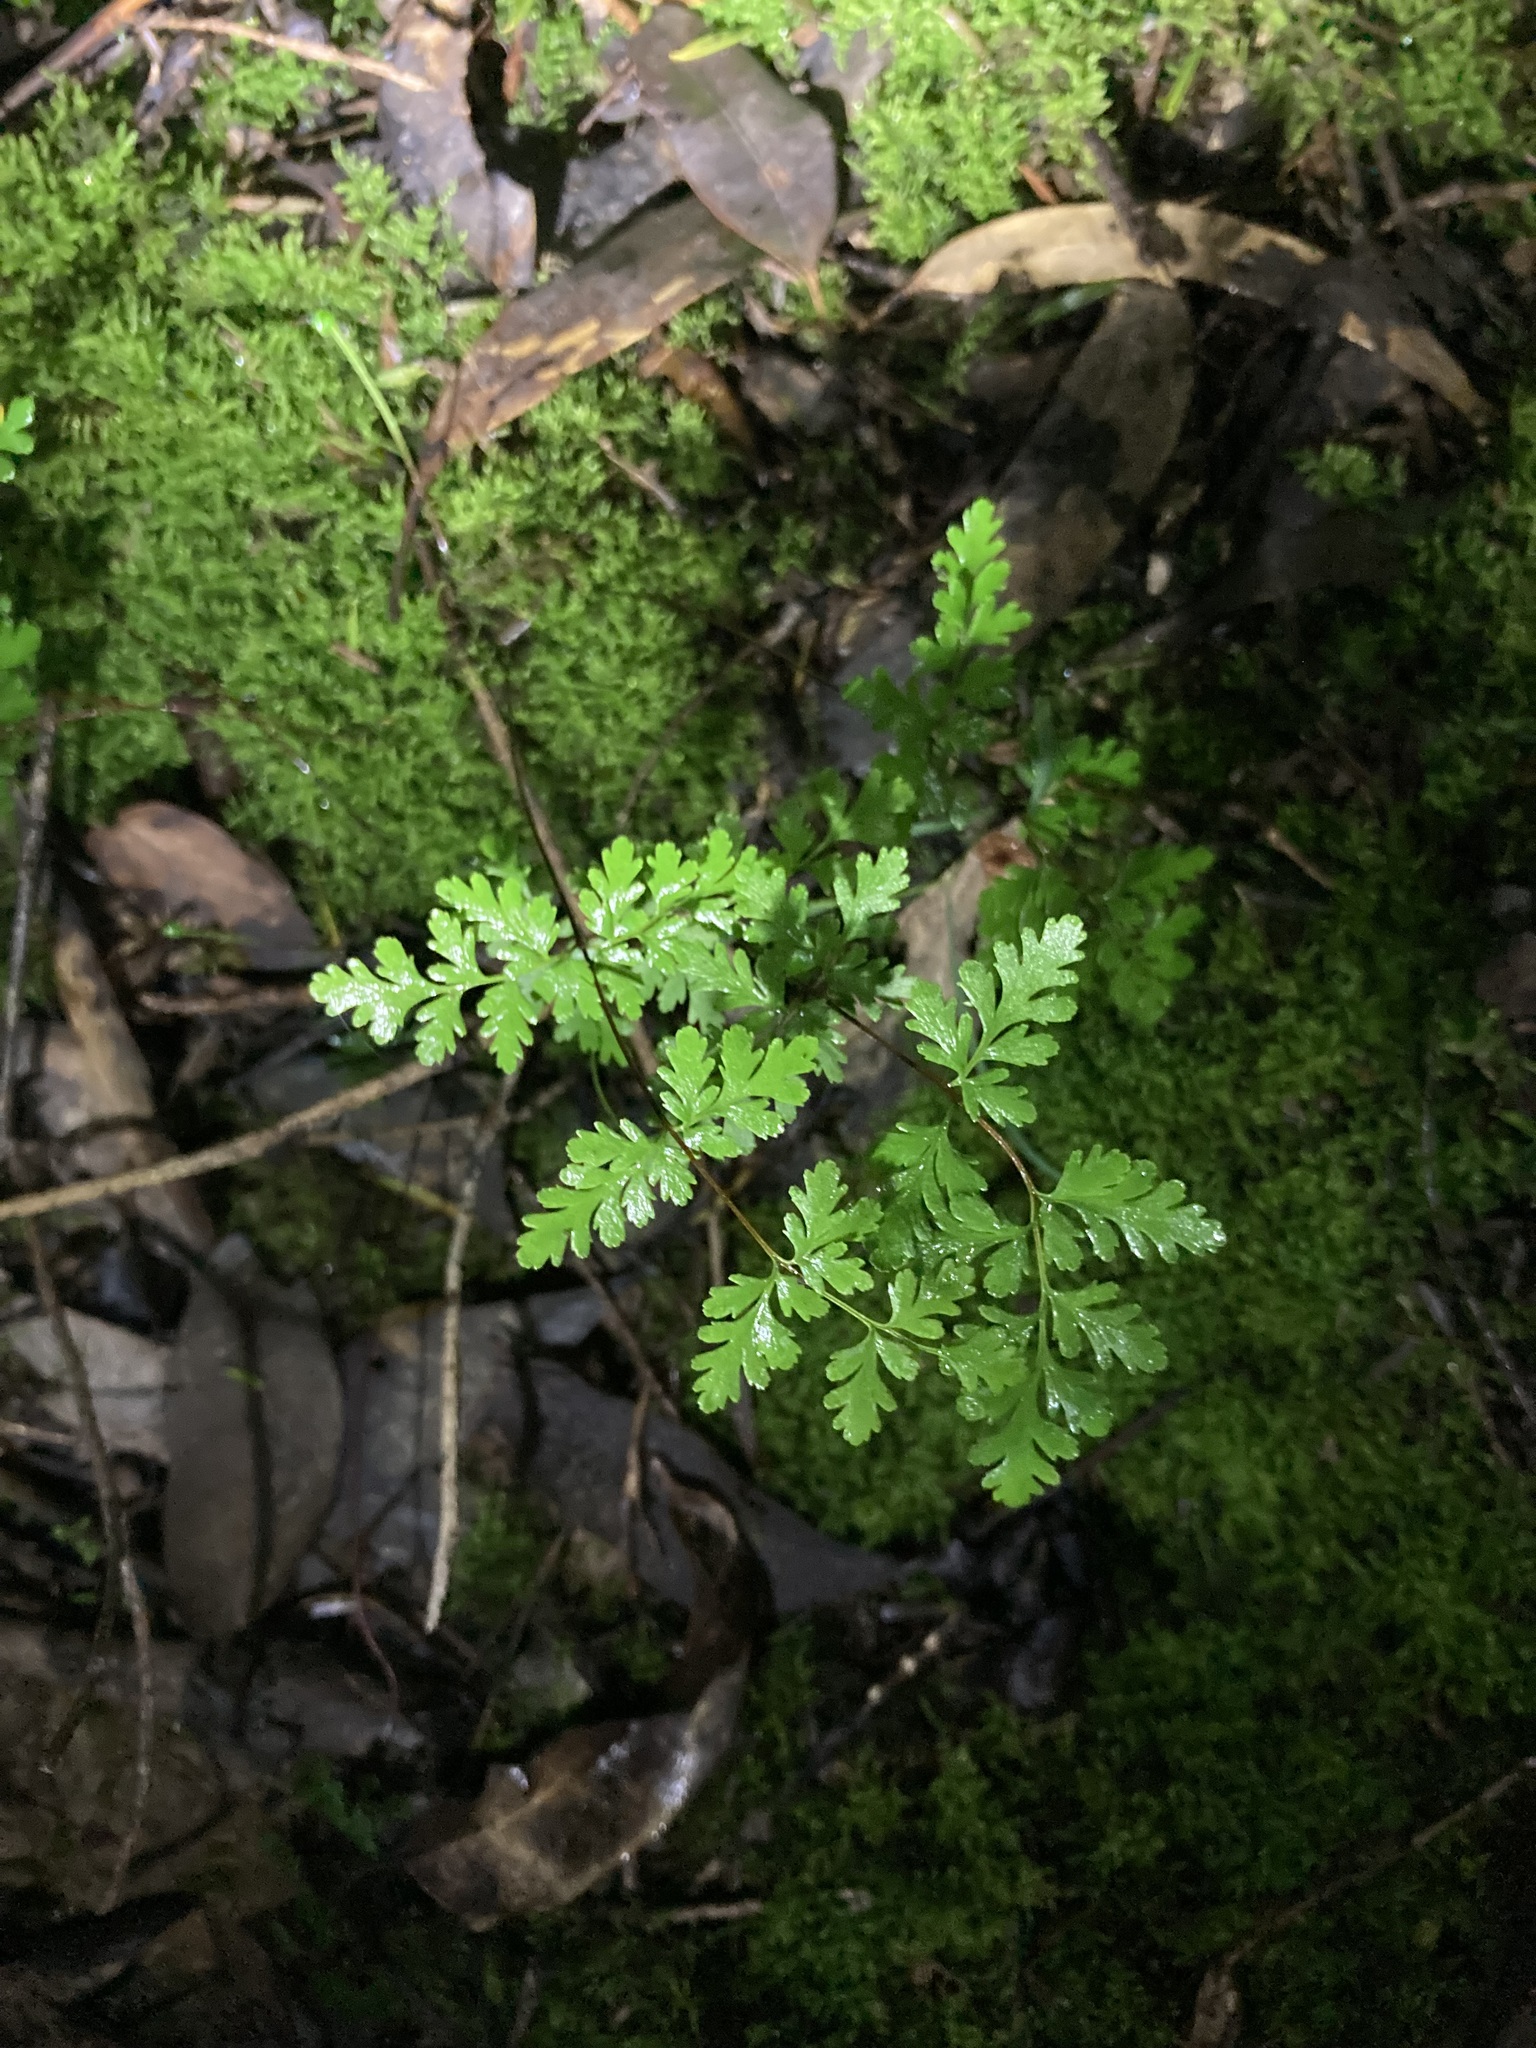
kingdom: Plantae
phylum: Tracheophyta
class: Polypodiopsida
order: Polypodiales
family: Pteridaceae
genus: Cheilanthes
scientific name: Cheilanthes sieberi
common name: Mulga fern
